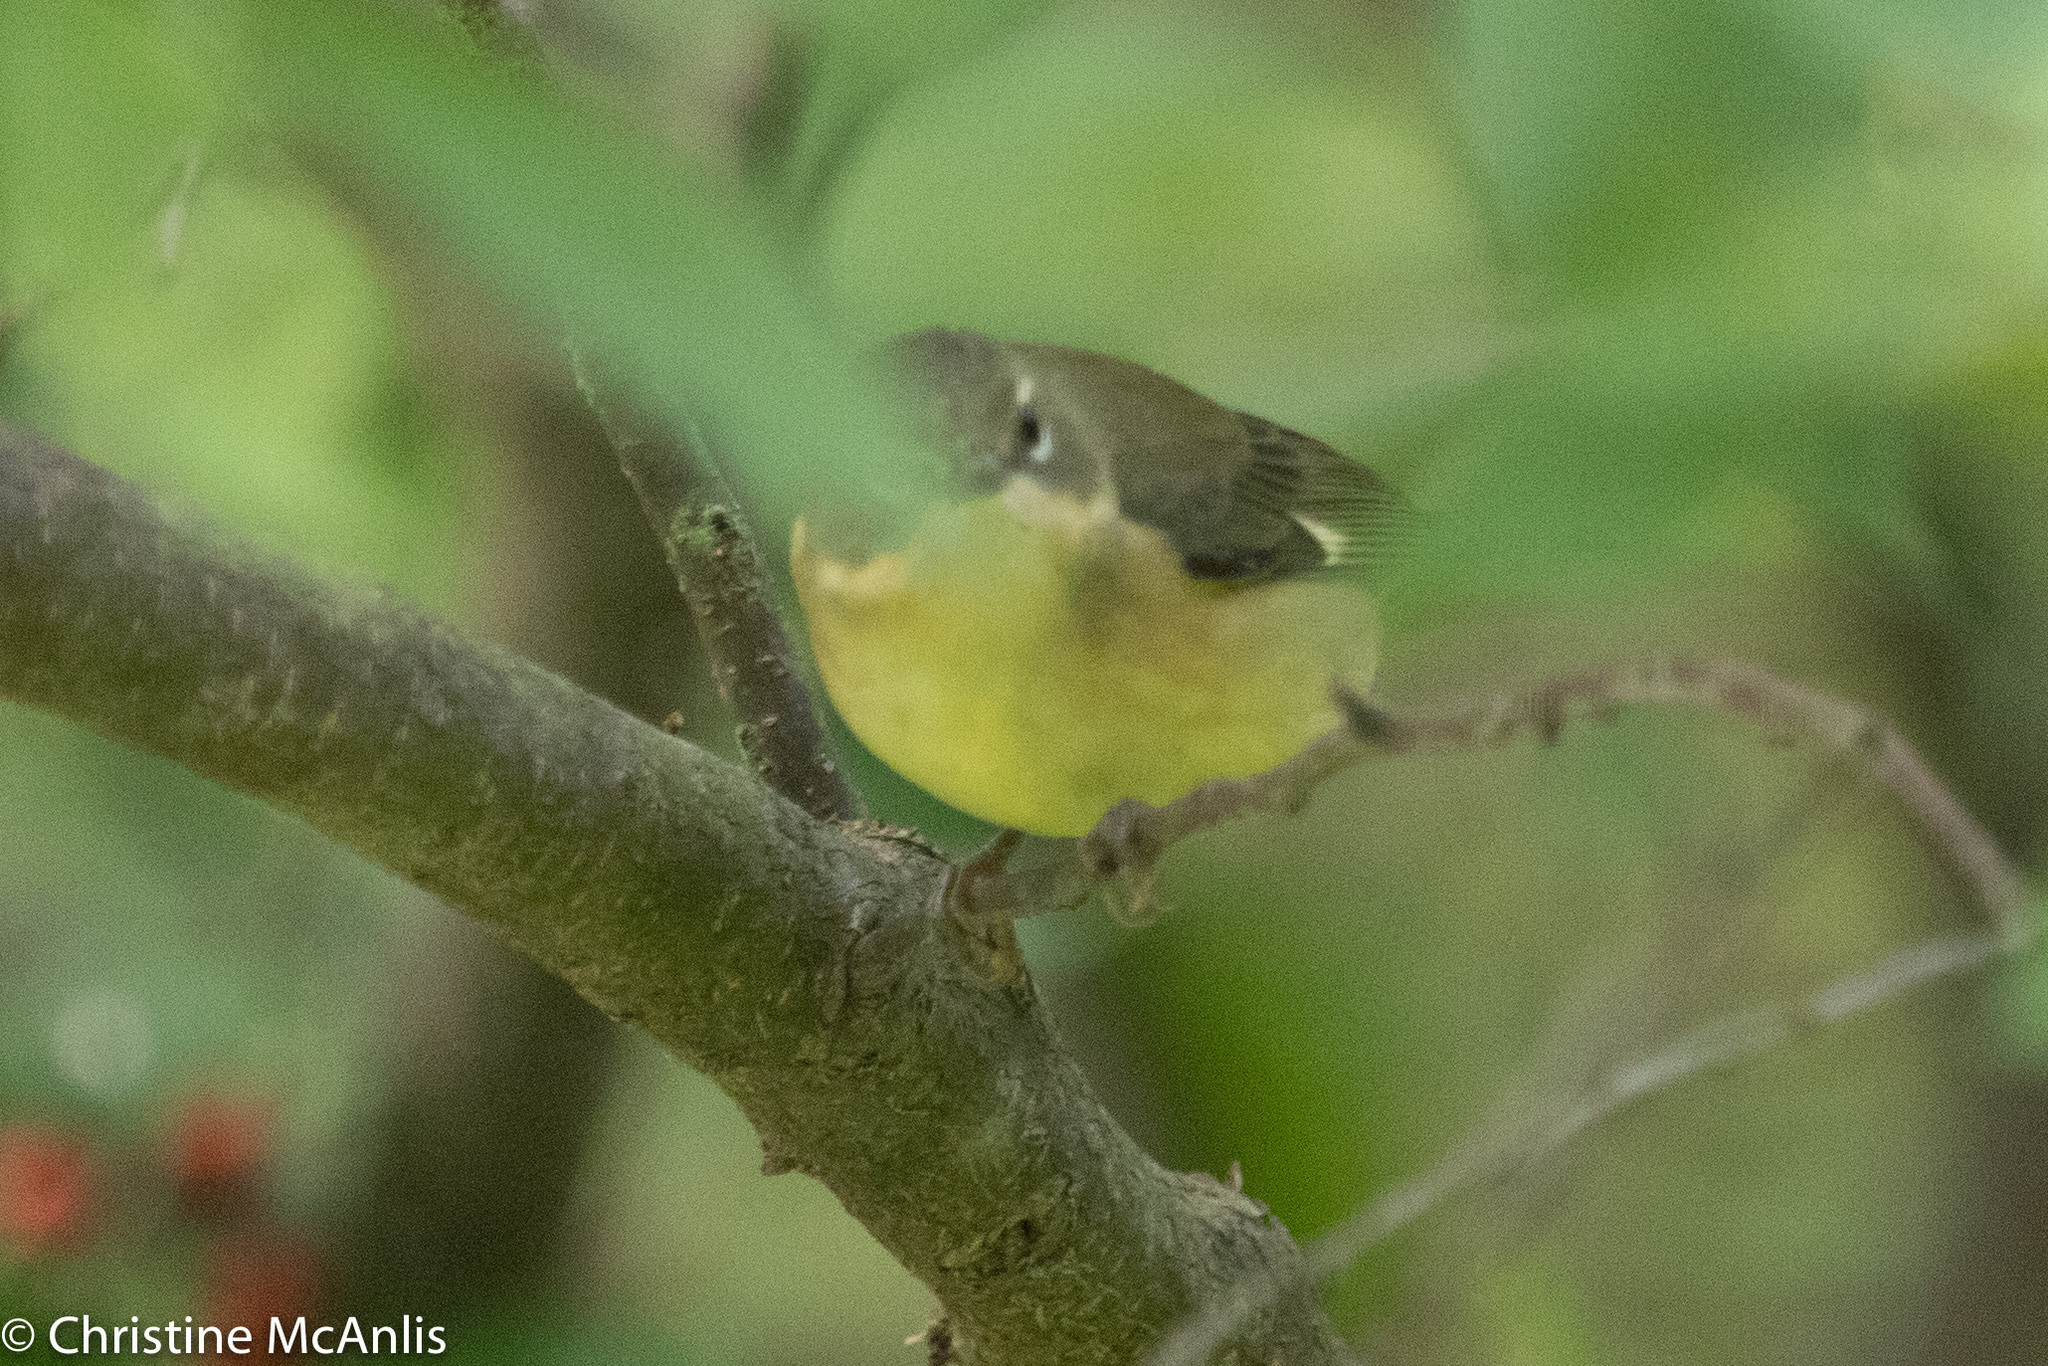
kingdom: Animalia
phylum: Chordata
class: Aves
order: Passeriformes
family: Parulidae
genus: Setophaga
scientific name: Setophaga caerulescens
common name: Black-throated blue warbler
